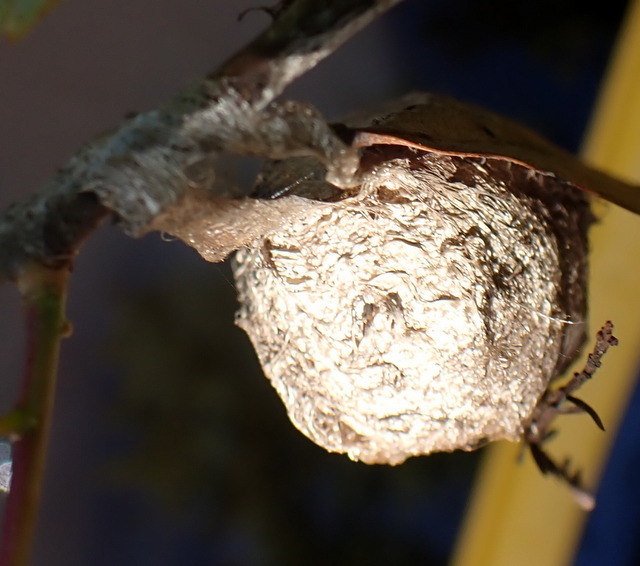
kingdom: Animalia
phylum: Arthropoda
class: Insecta
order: Lepidoptera
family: Saturniidae
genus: Antheraea
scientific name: Antheraea polyphemus
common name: Polyphemus moth
